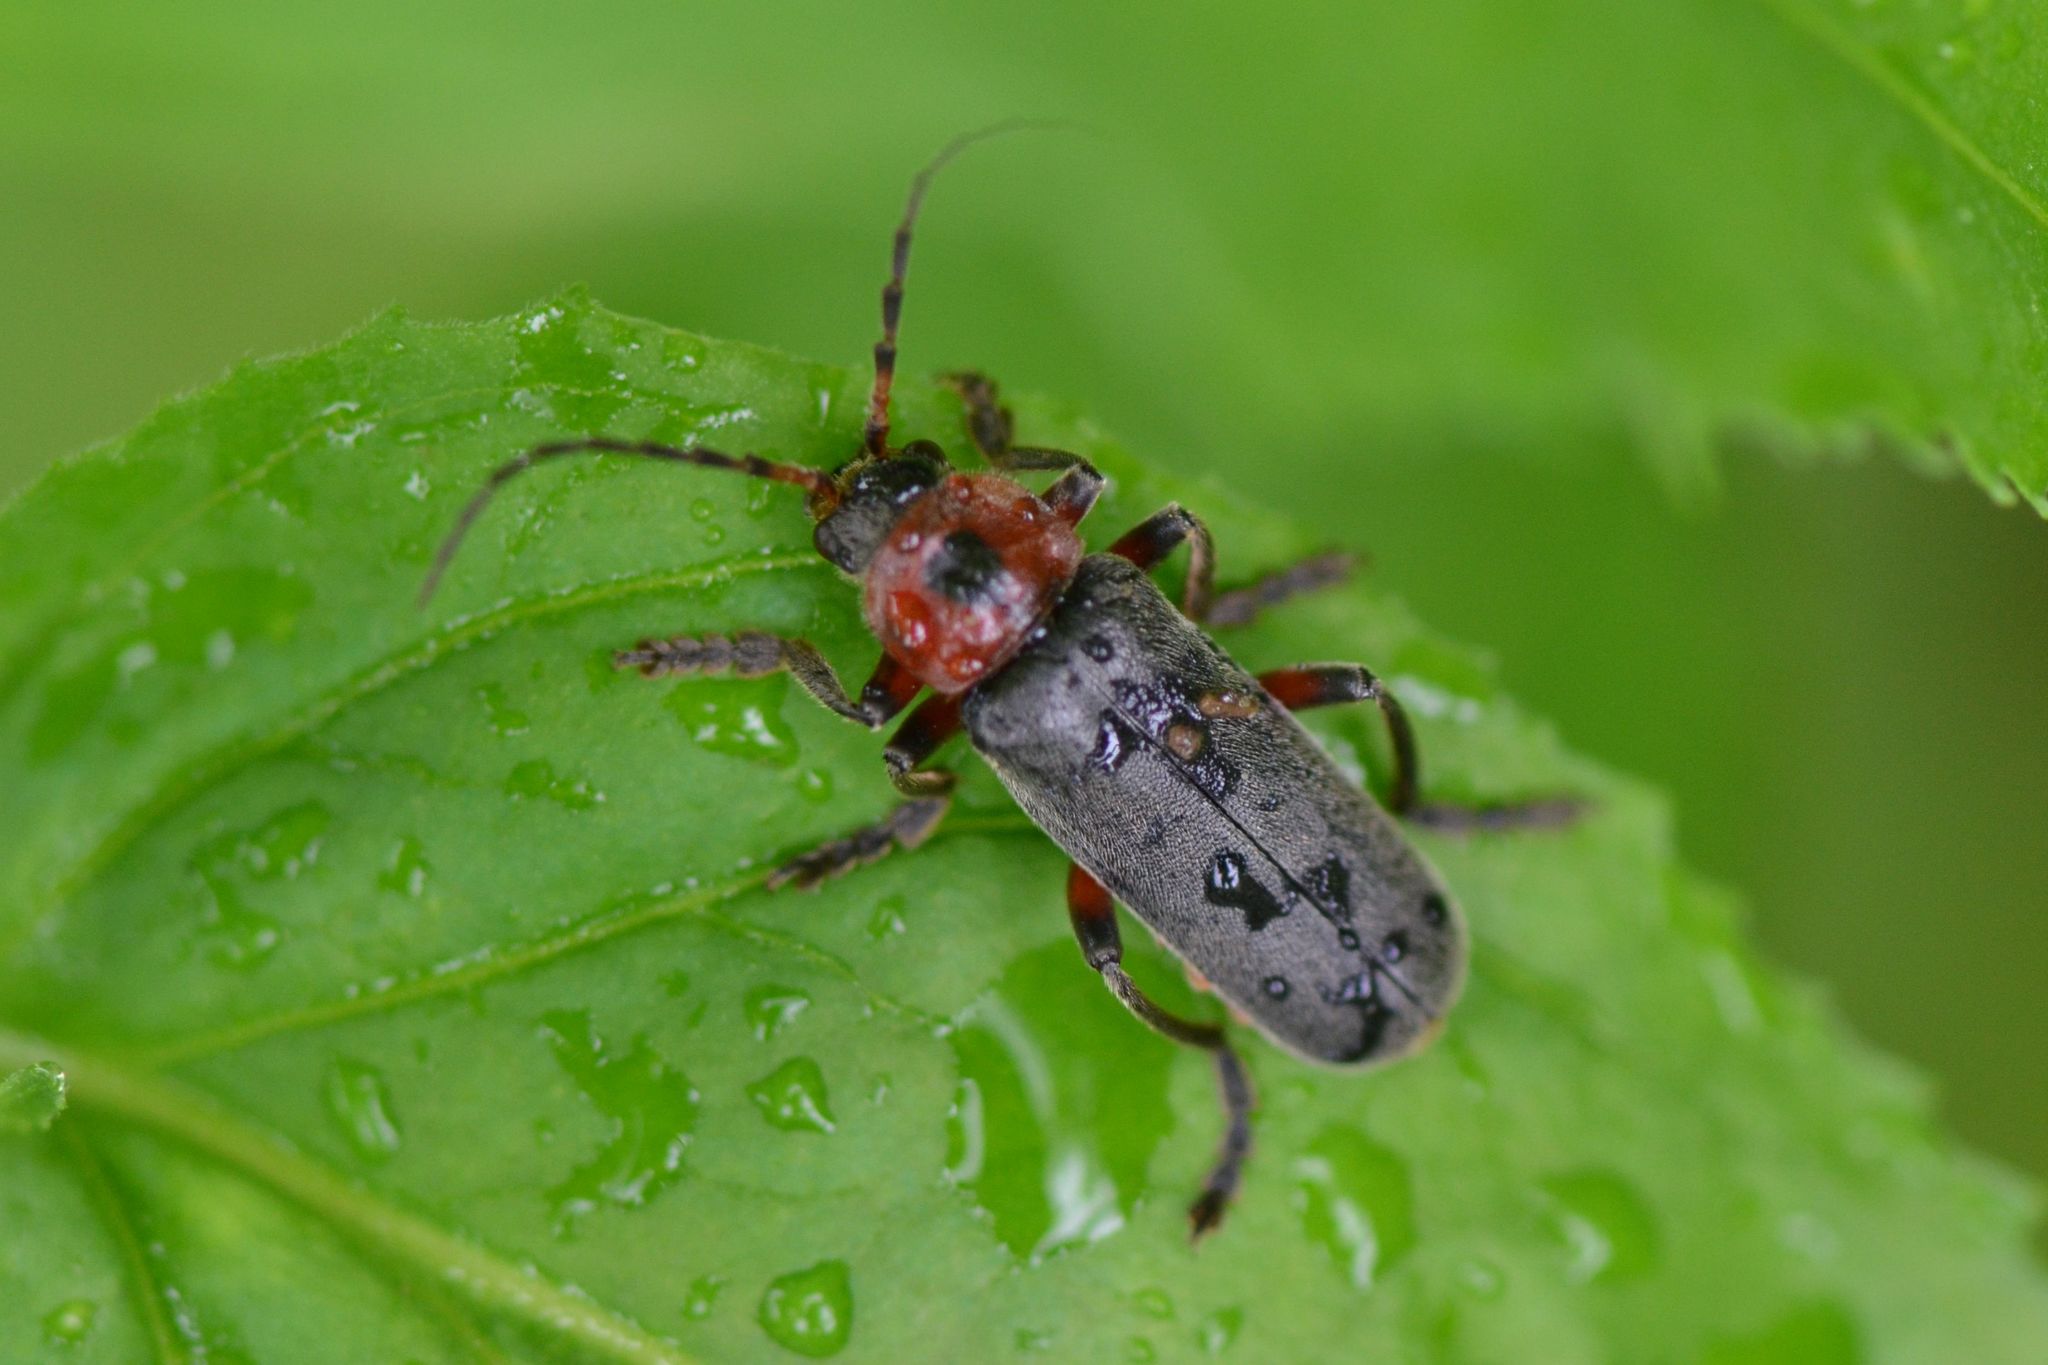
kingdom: Animalia
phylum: Arthropoda
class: Insecta
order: Coleoptera
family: Cantharidae
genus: Cantharis
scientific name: Cantharis rustica
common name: Soldier beetle
